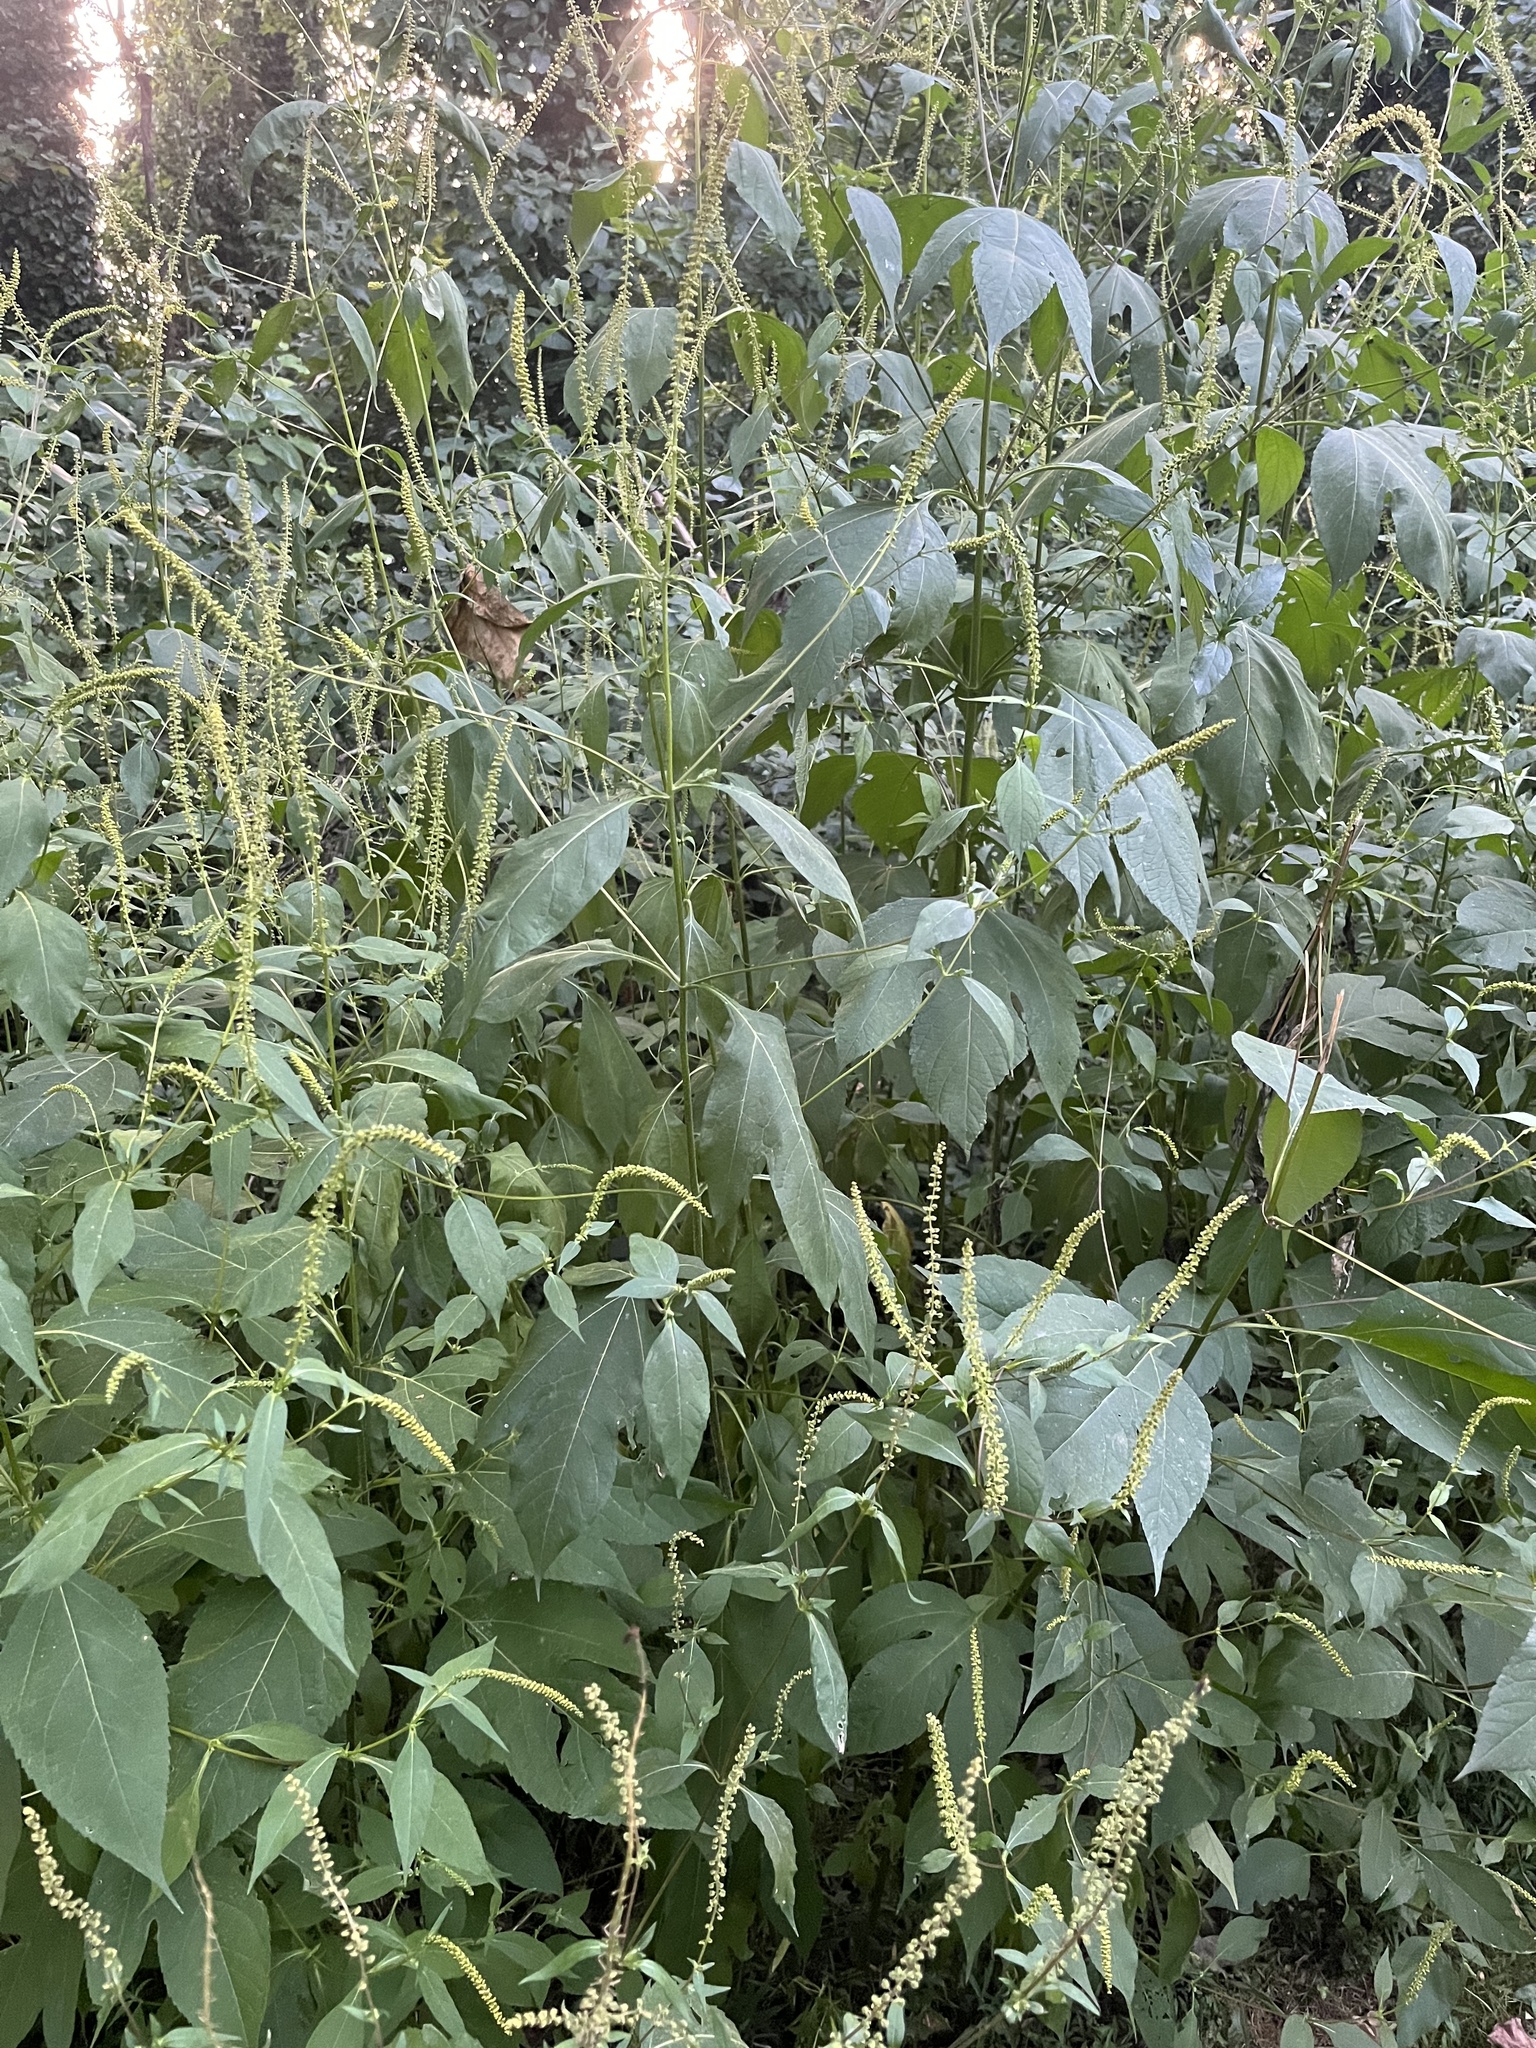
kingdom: Plantae
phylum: Tracheophyta
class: Magnoliopsida
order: Asterales
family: Asteraceae
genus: Ambrosia
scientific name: Ambrosia trifida
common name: Giant ragweed
